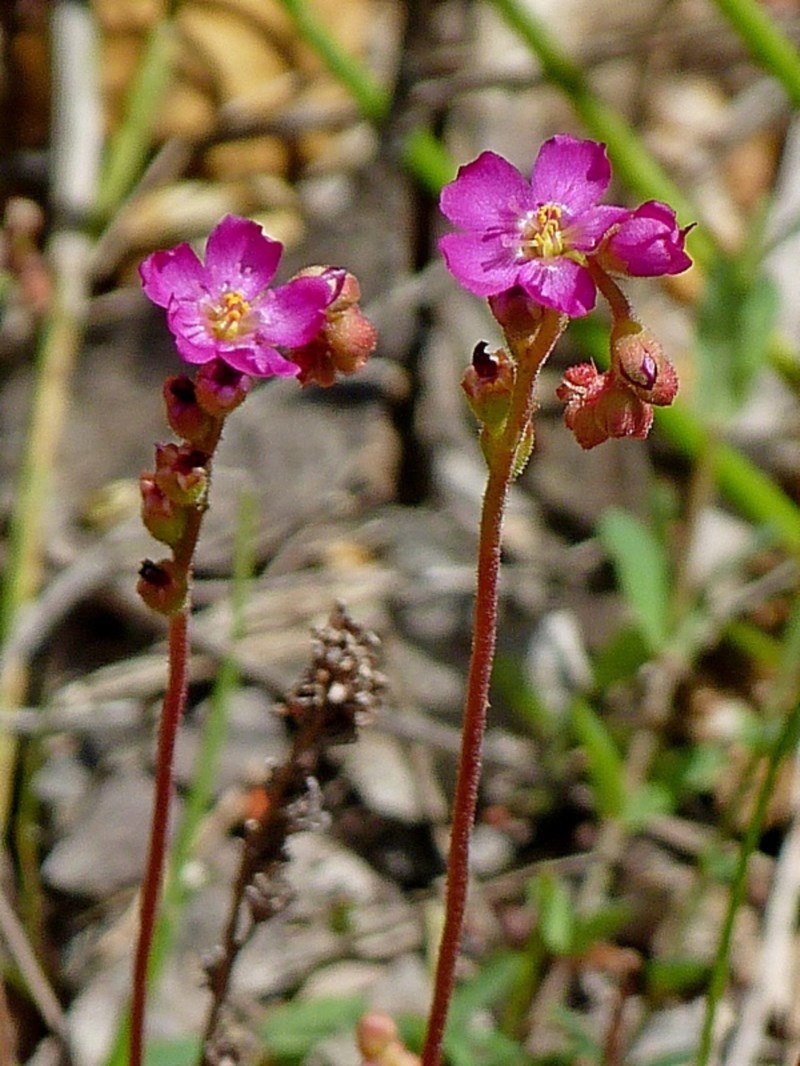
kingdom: Plantae
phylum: Tracheophyta
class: Magnoliopsida
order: Caryophyllales
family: Droseraceae
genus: Drosera
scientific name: Drosera spatulata
